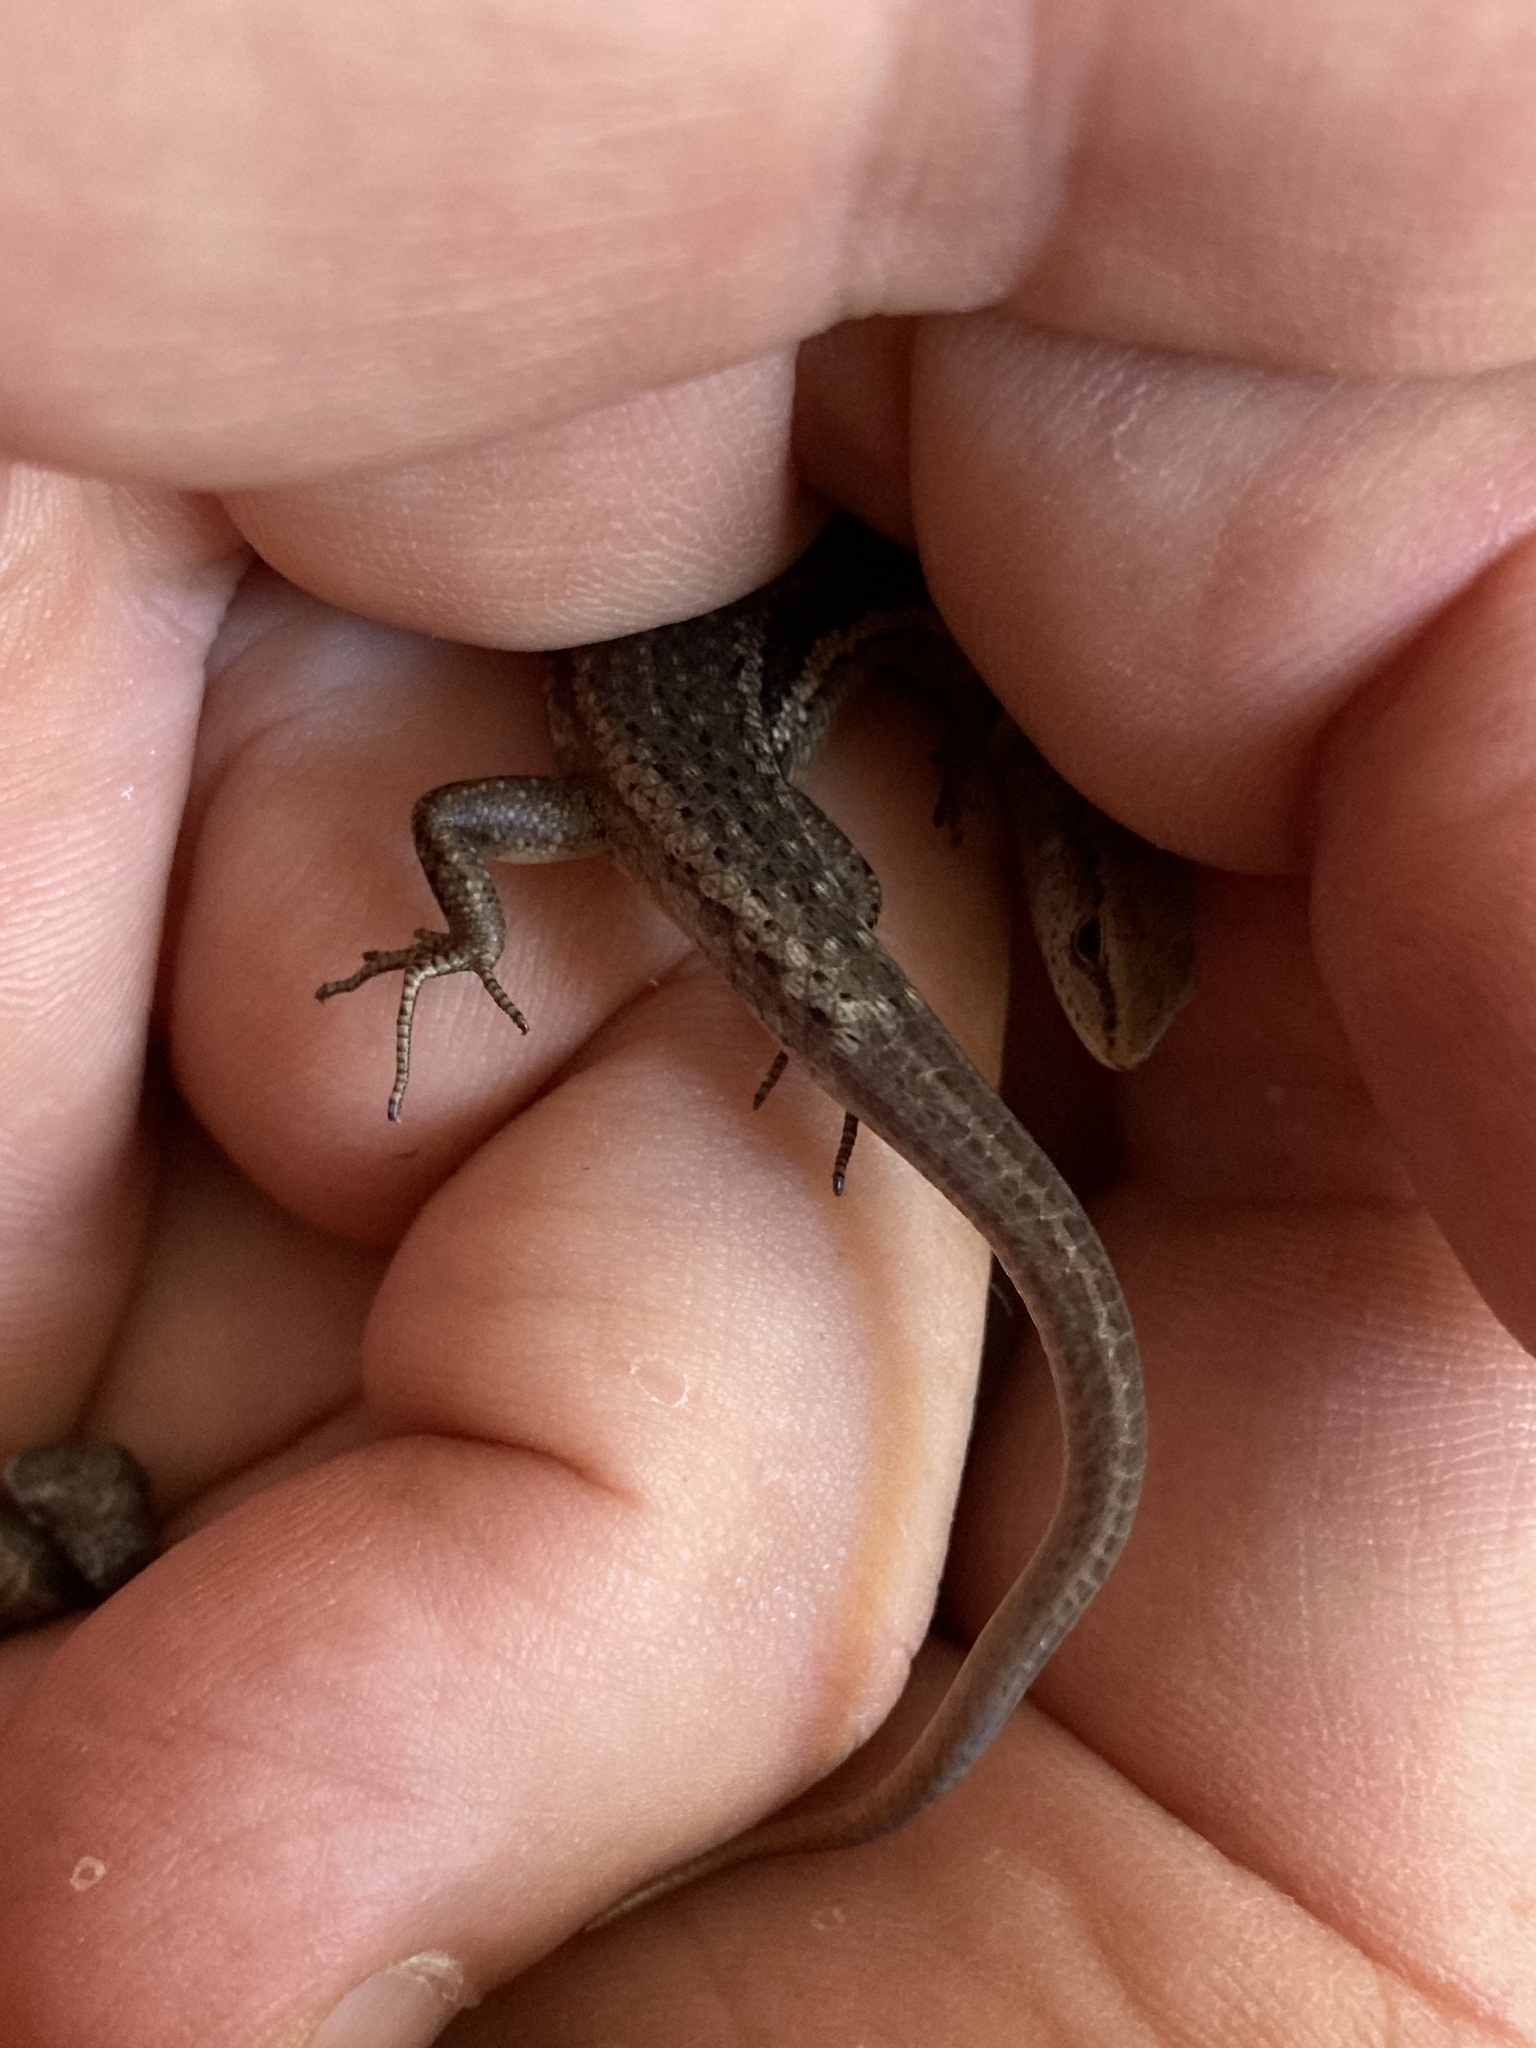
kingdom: Animalia
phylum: Chordata
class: Squamata
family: Scincidae
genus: Lampropholis
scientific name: Lampropholis delicata
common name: Plague skink
